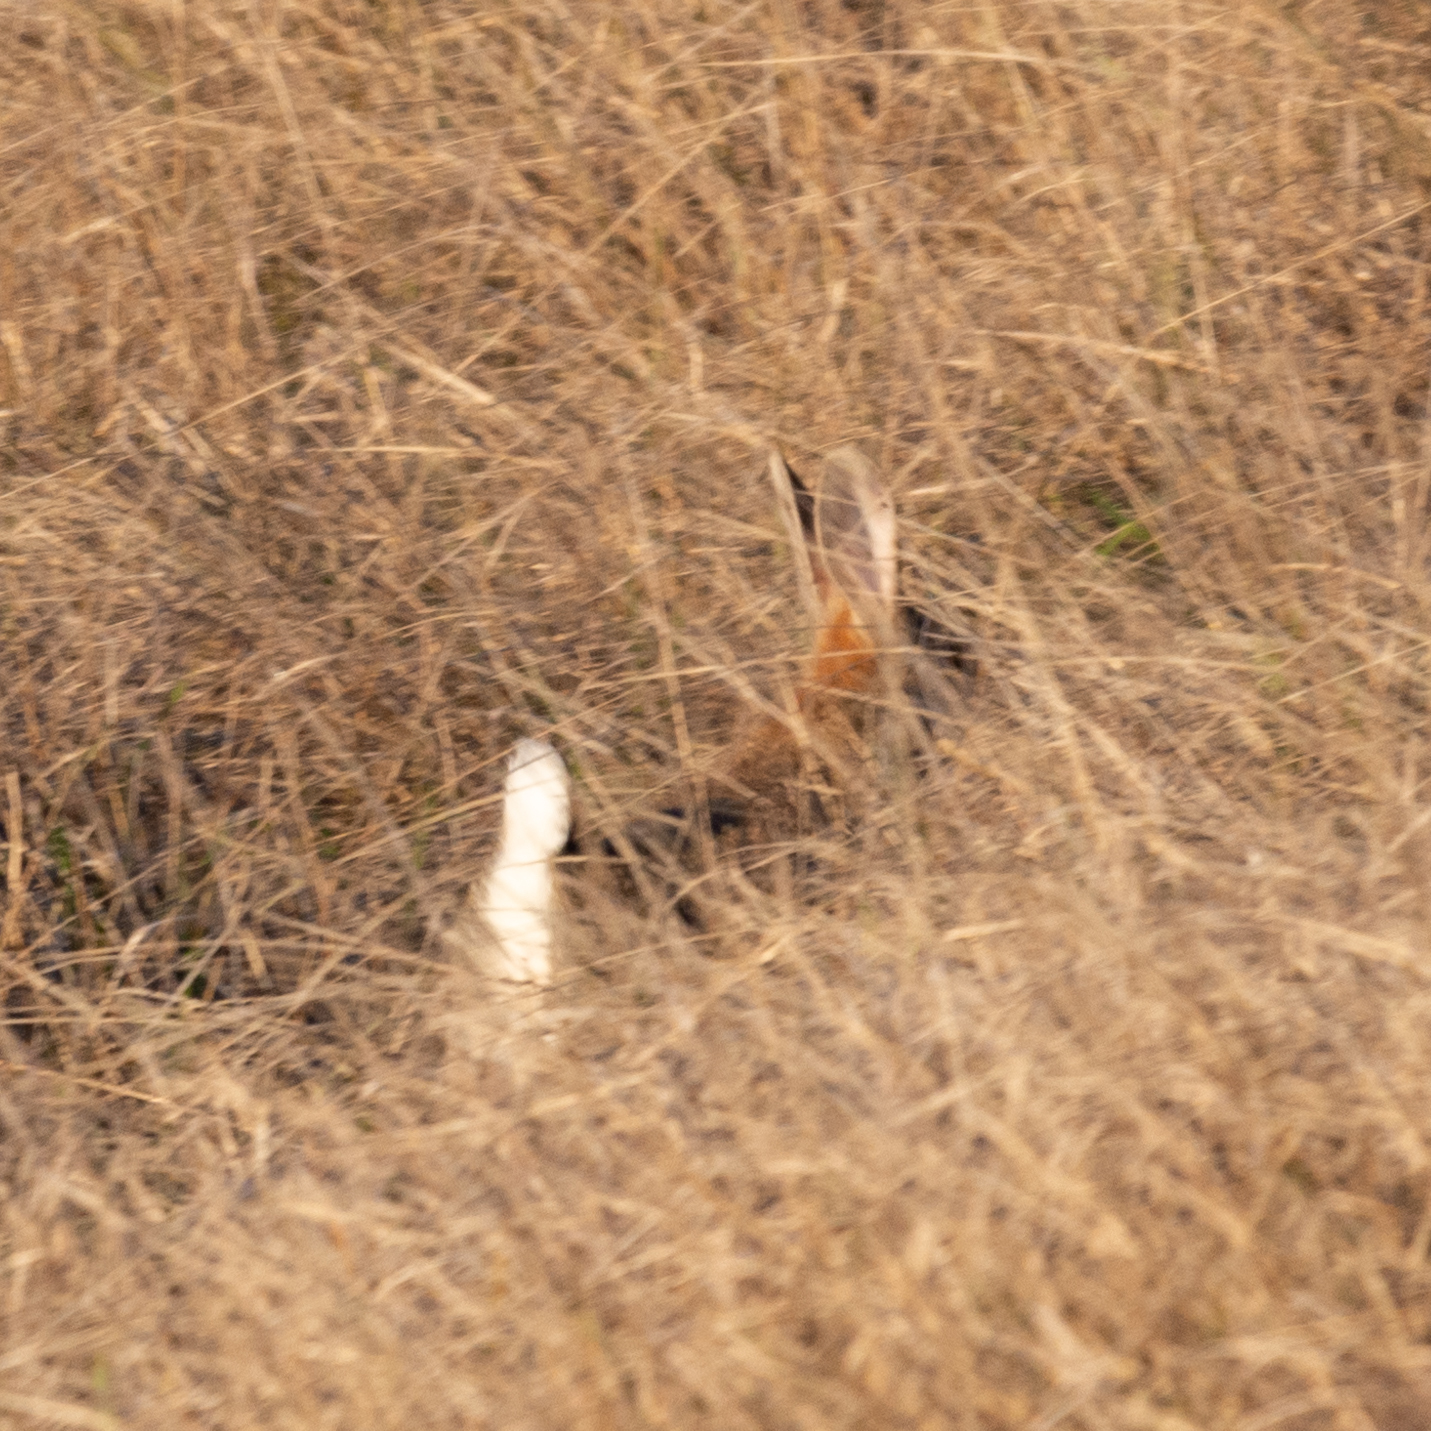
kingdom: Animalia
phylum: Chordata
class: Mammalia
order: Lagomorpha
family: Leporidae
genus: Oryctolagus
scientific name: Oryctolagus cuniculus
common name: European rabbit
